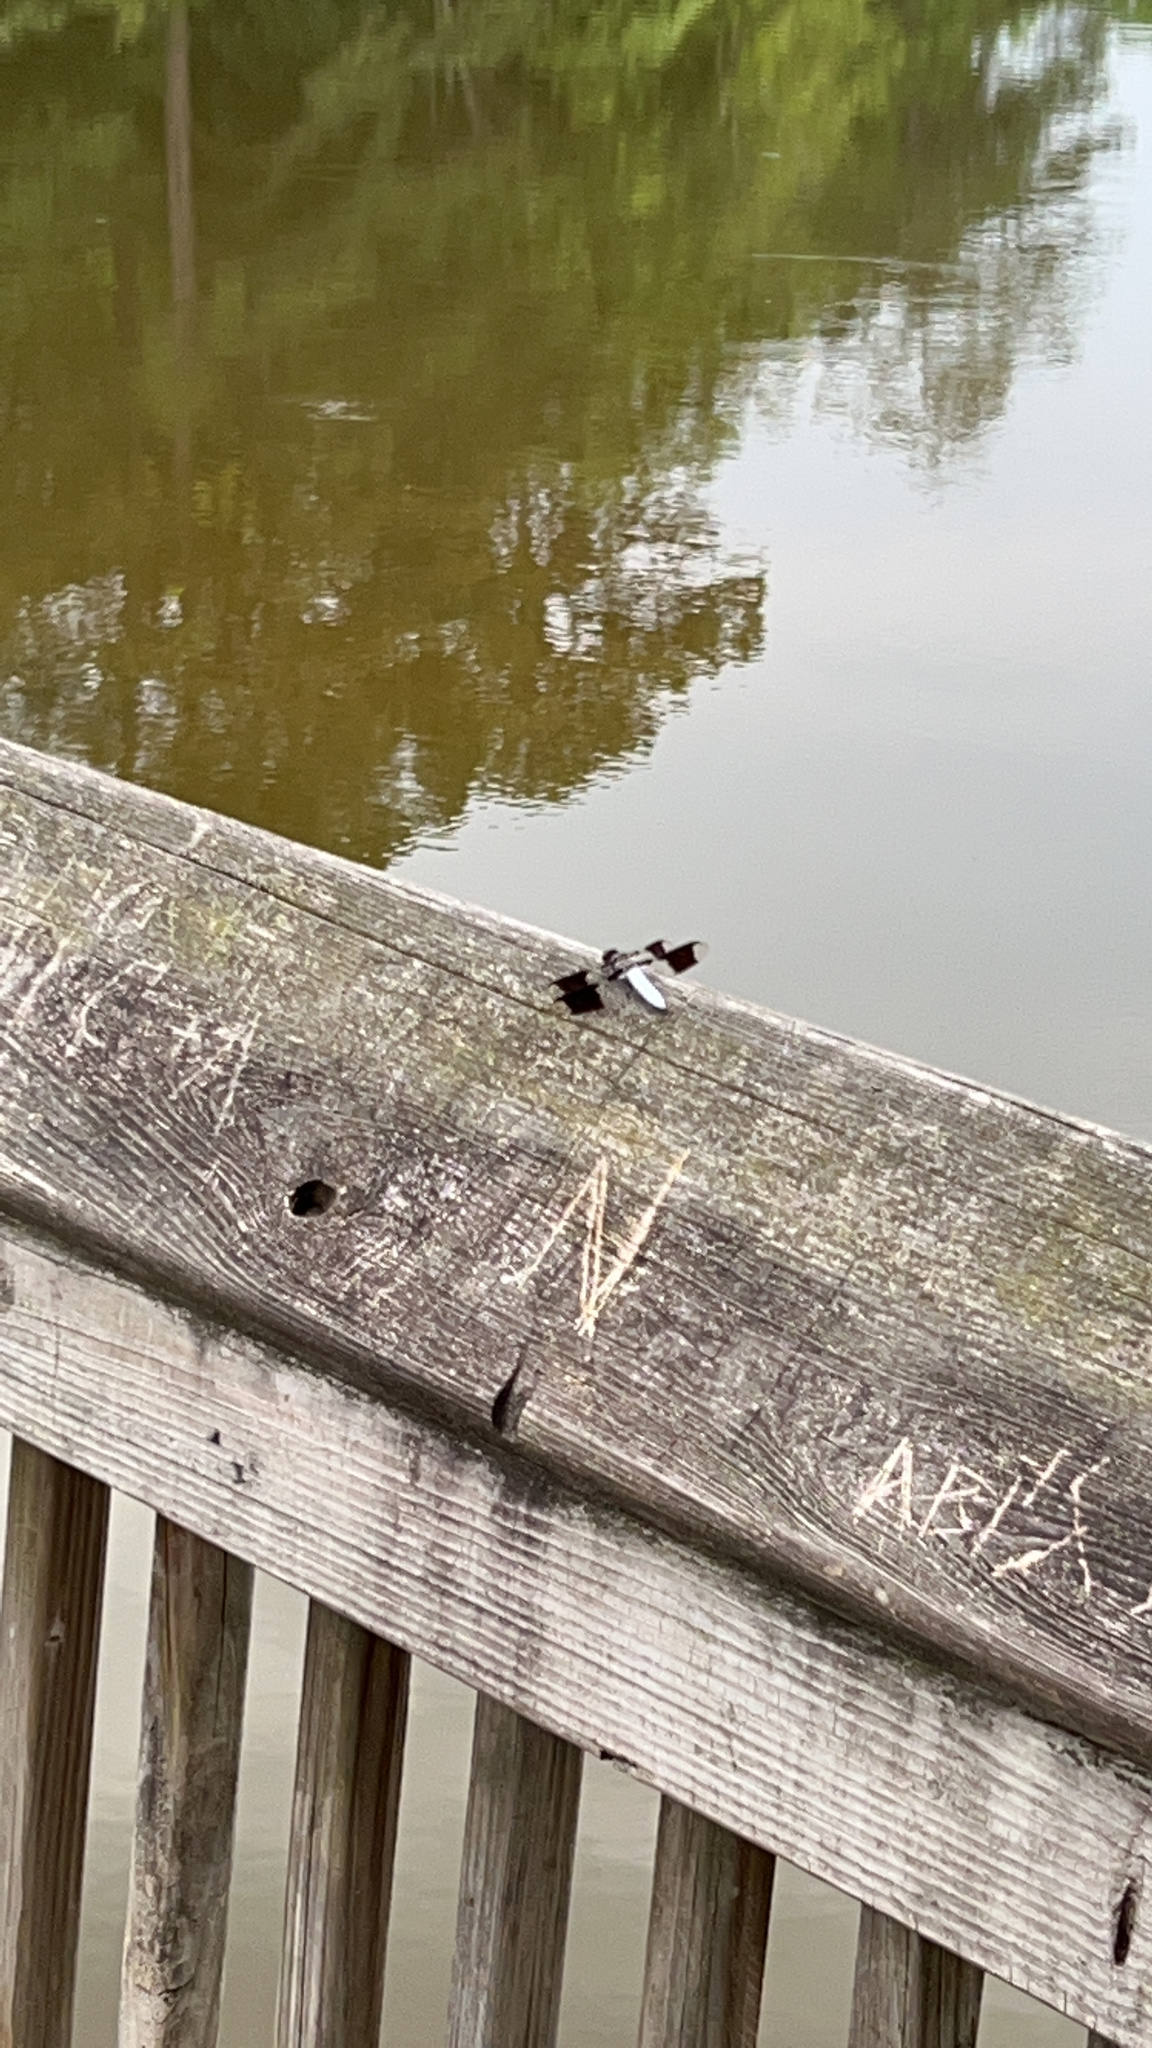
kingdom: Animalia
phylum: Arthropoda
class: Insecta
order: Odonata
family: Libellulidae
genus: Plathemis
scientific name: Plathemis lydia
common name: Common whitetail
